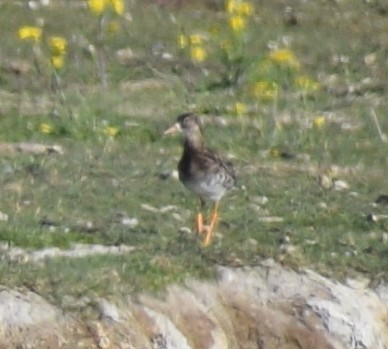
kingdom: Animalia
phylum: Chordata
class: Aves
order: Charadriiformes
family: Scolopacidae
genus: Calidris
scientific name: Calidris pugnax
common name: Ruff
